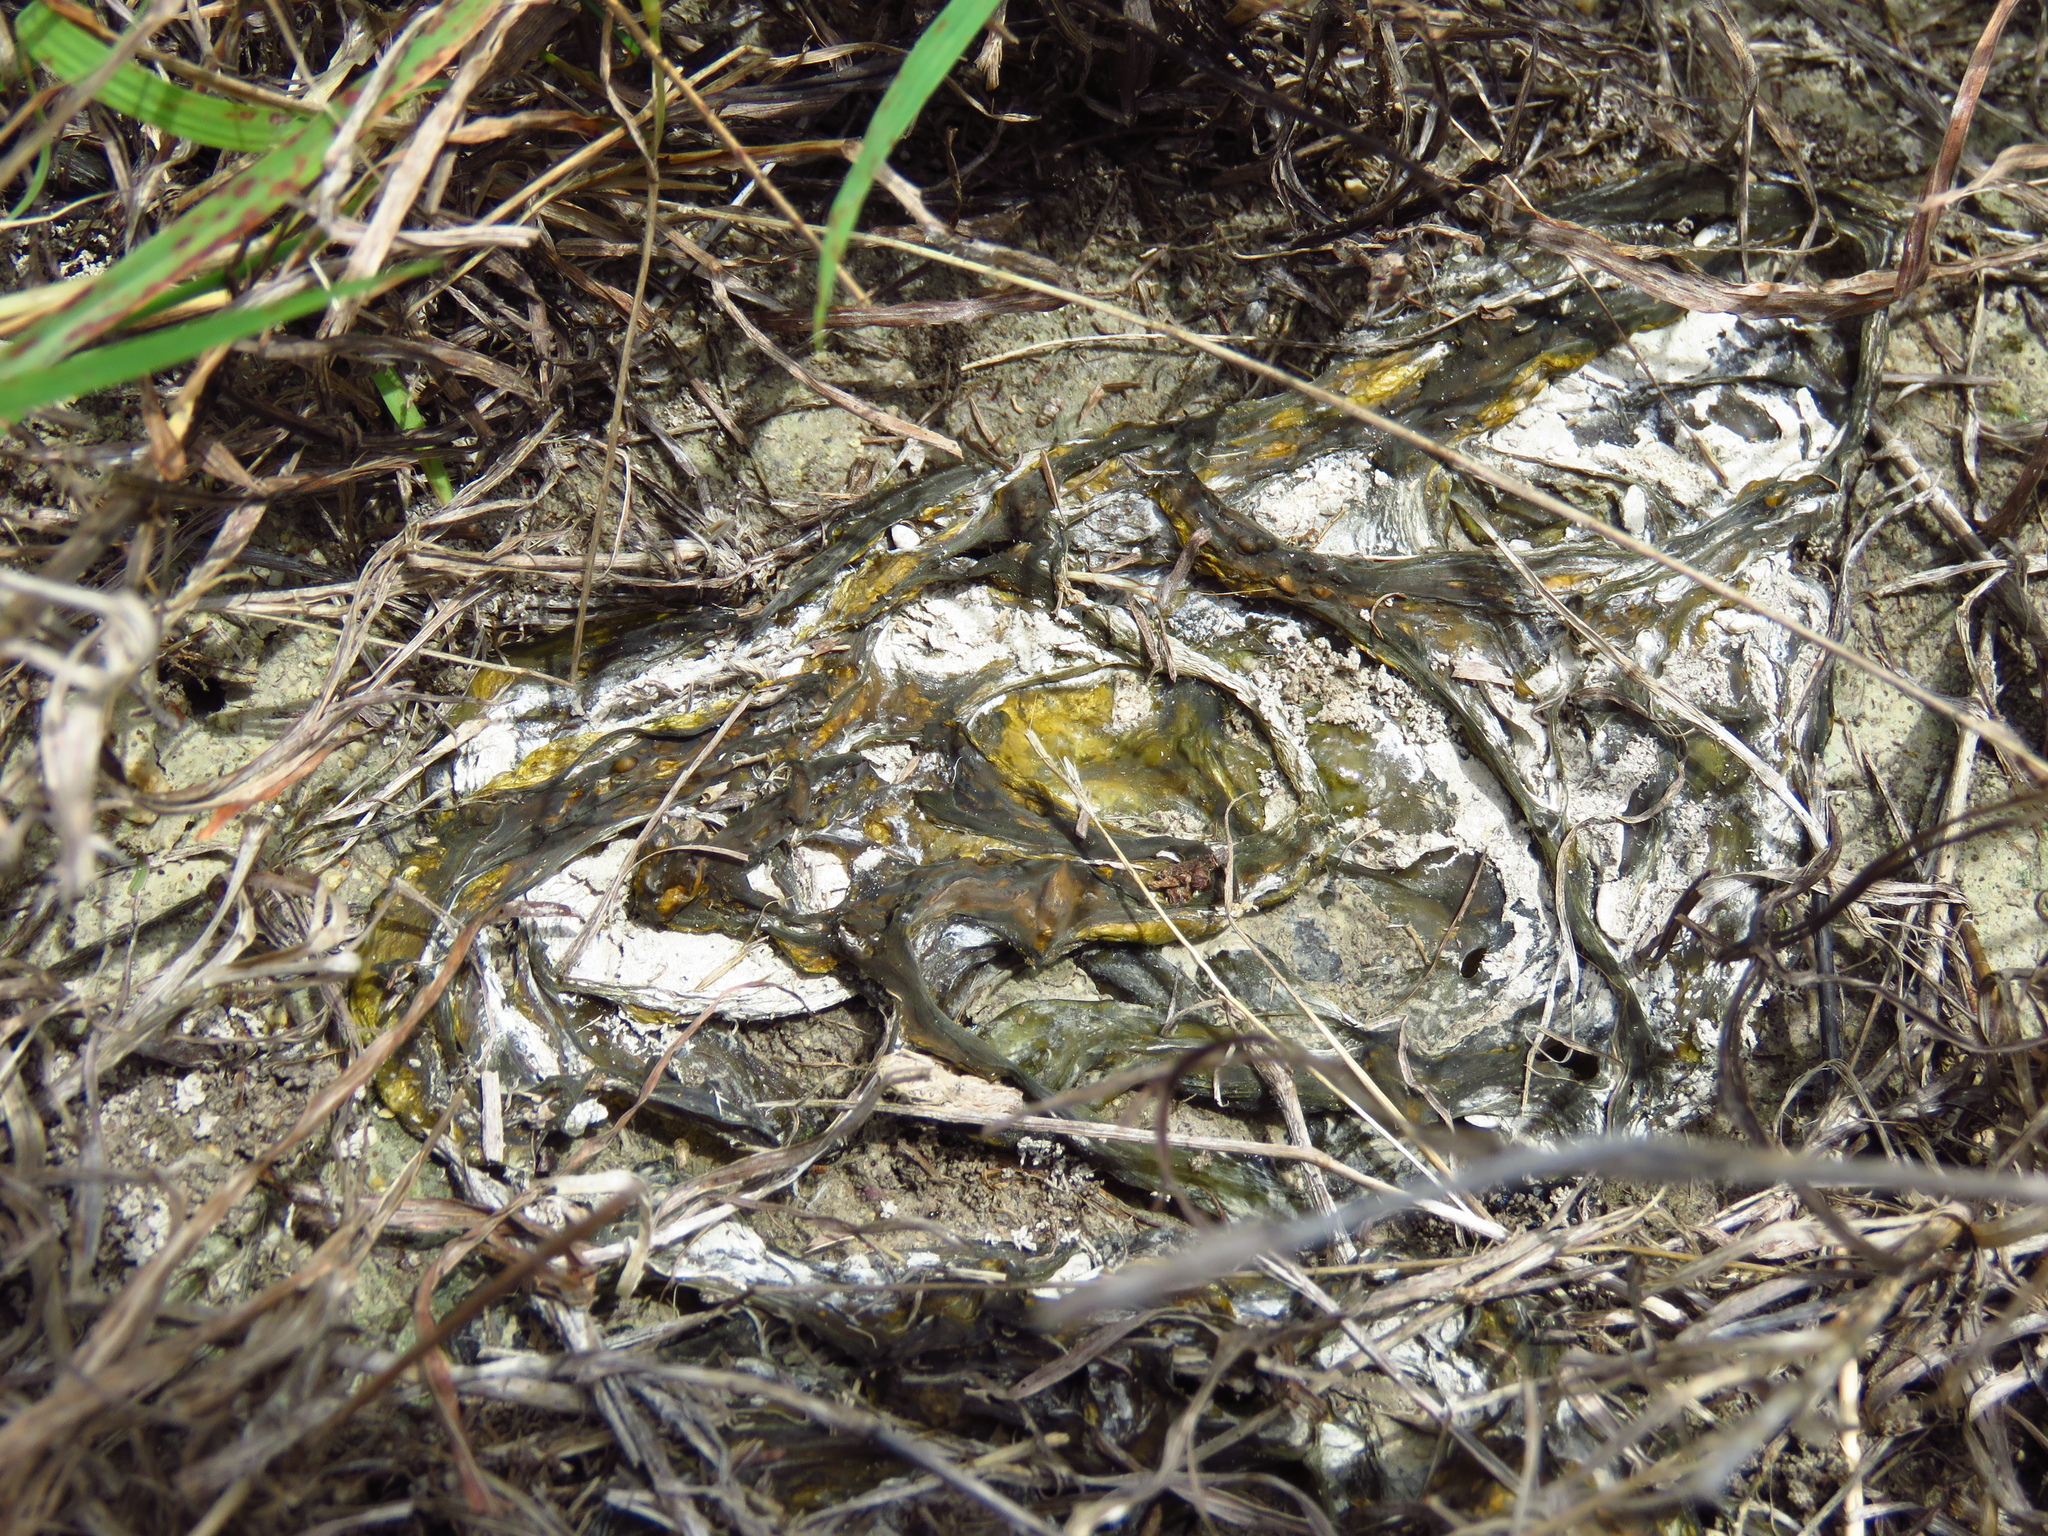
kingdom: Bacteria
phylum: Cyanobacteria
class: Cyanobacteriia
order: Cyanobacteriales
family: Nostocaceae
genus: Nostoc
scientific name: Nostoc commune
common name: Star jelly
